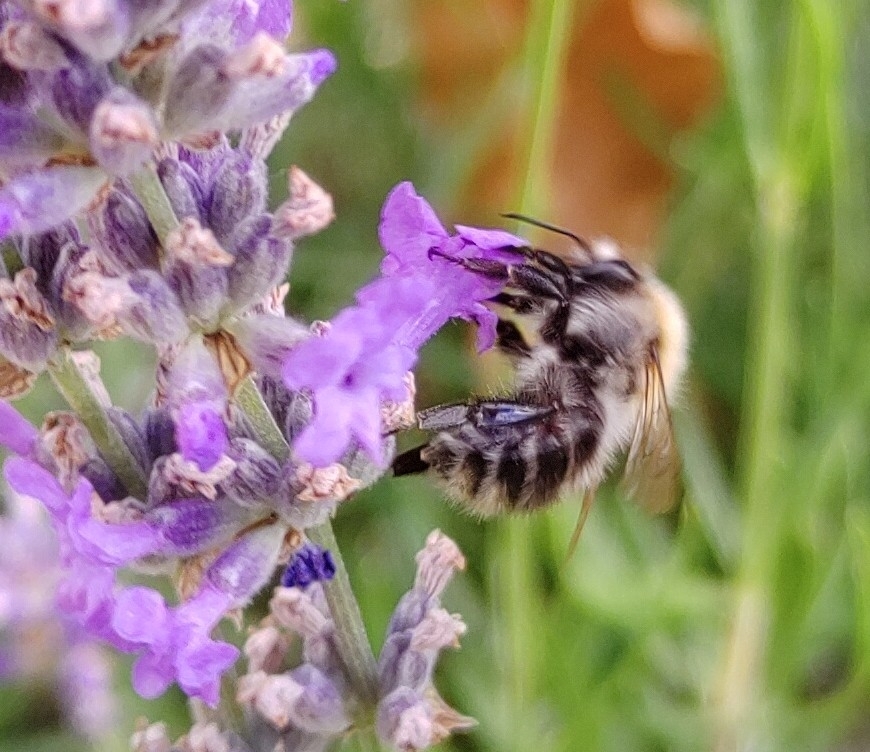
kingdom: Animalia
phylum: Arthropoda
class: Insecta
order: Hymenoptera
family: Apidae
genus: Bombus
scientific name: Bombus pascuorum
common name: Common carder bee
